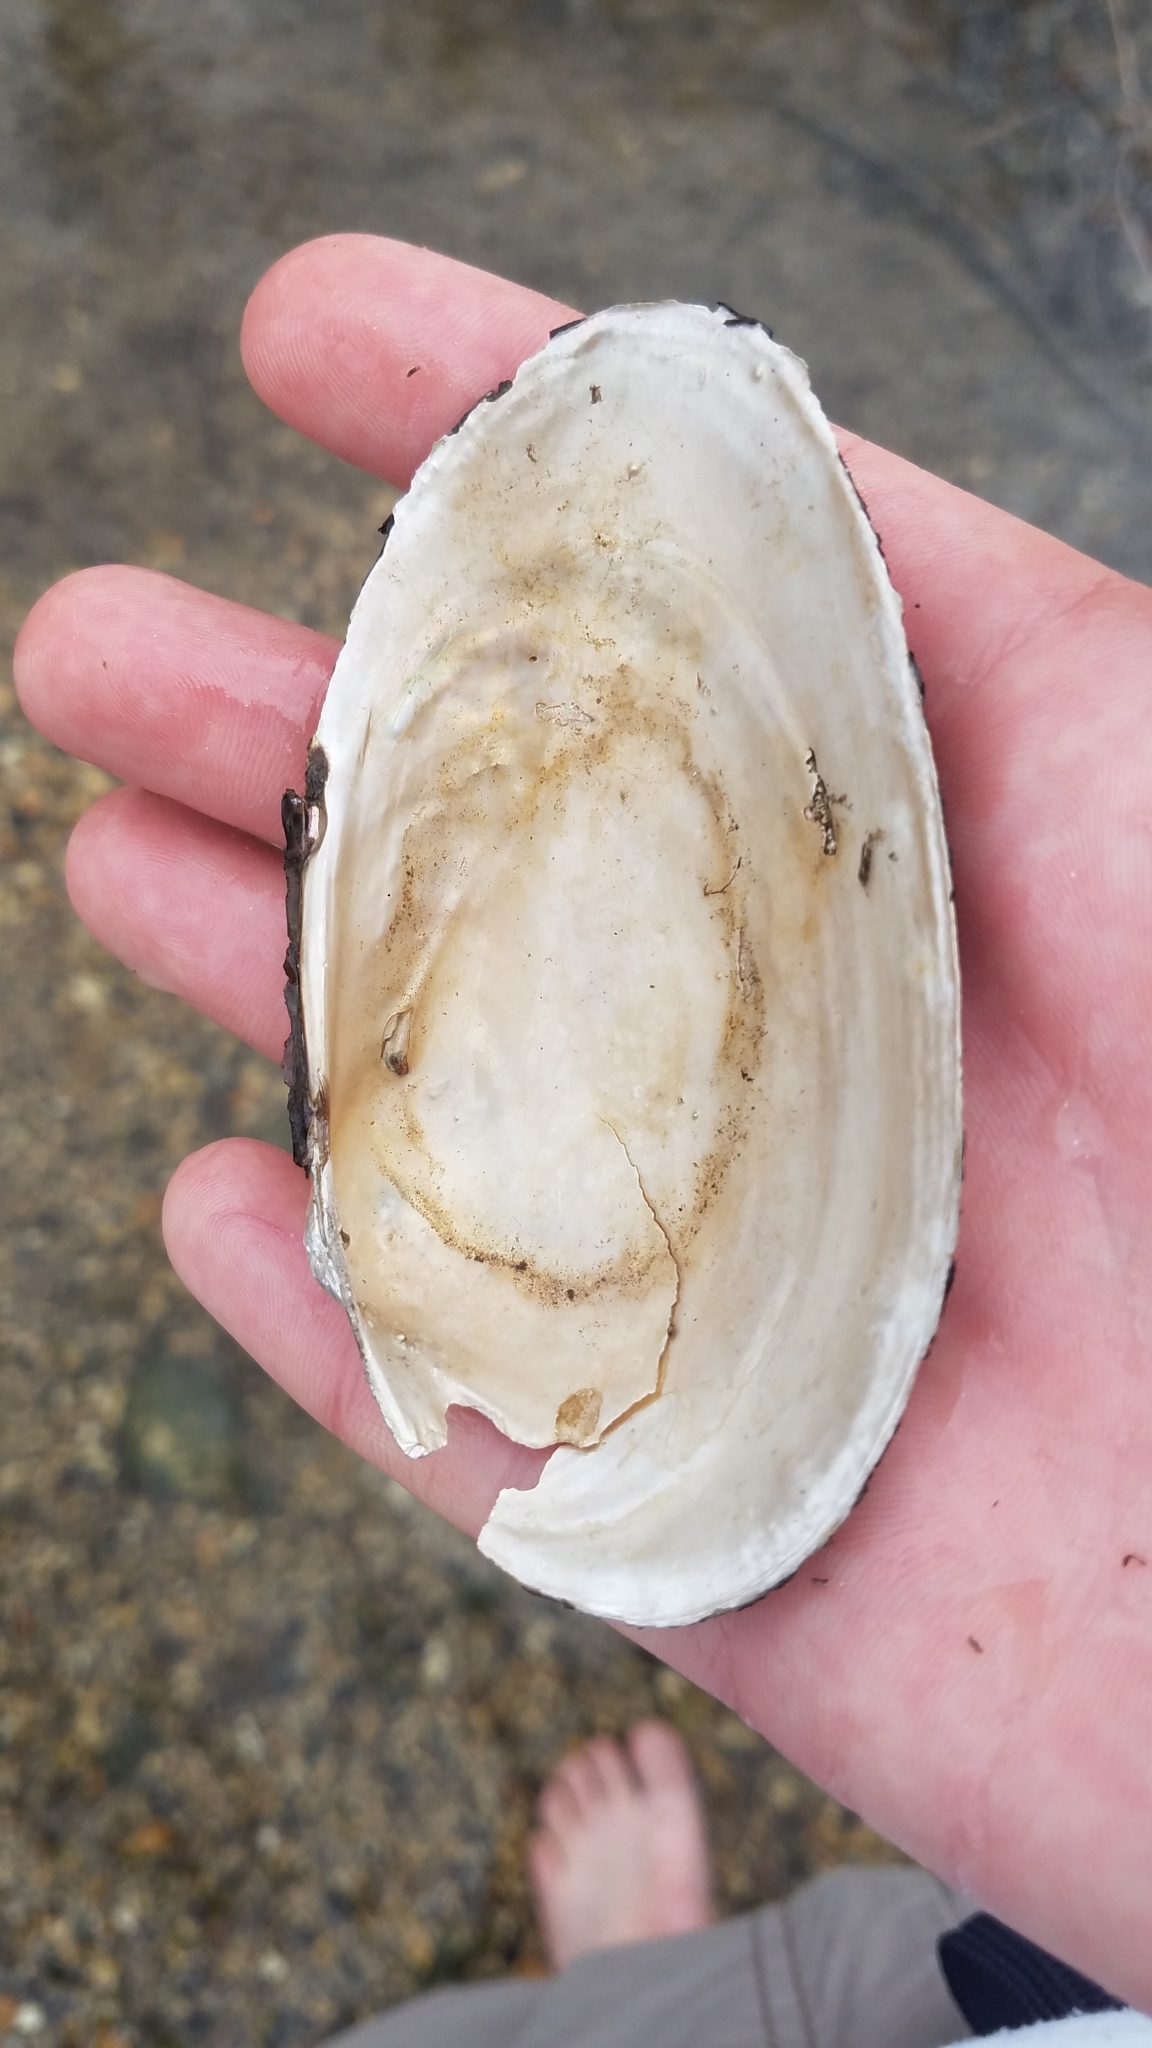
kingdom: Animalia
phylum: Mollusca
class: Bivalvia
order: Unionida
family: Unionidae
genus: Pyganodon
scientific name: Pyganodon grandis
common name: Giant floater
